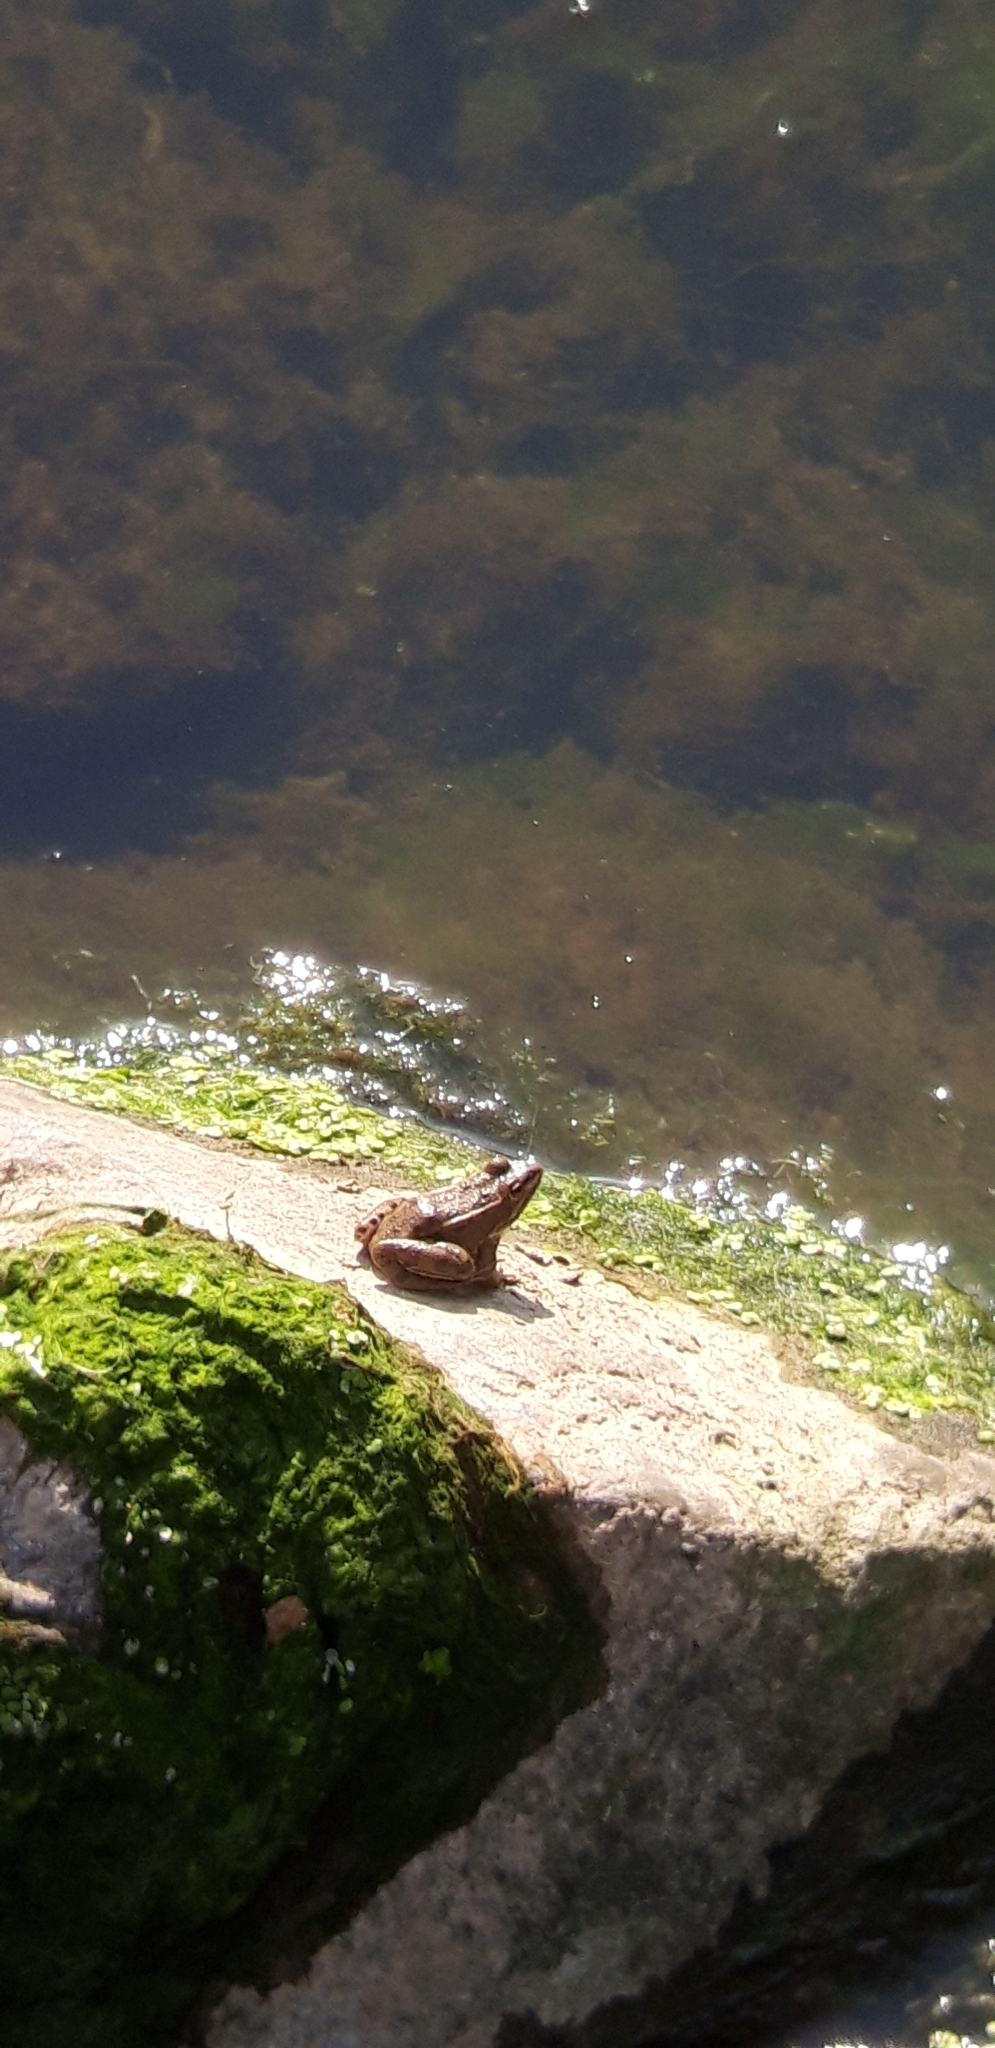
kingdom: Animalia
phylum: Chordata
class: Amphibia
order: Anura
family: Ranidae
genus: Pelophylax
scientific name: Pelophylax perezi
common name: Perez's frog
